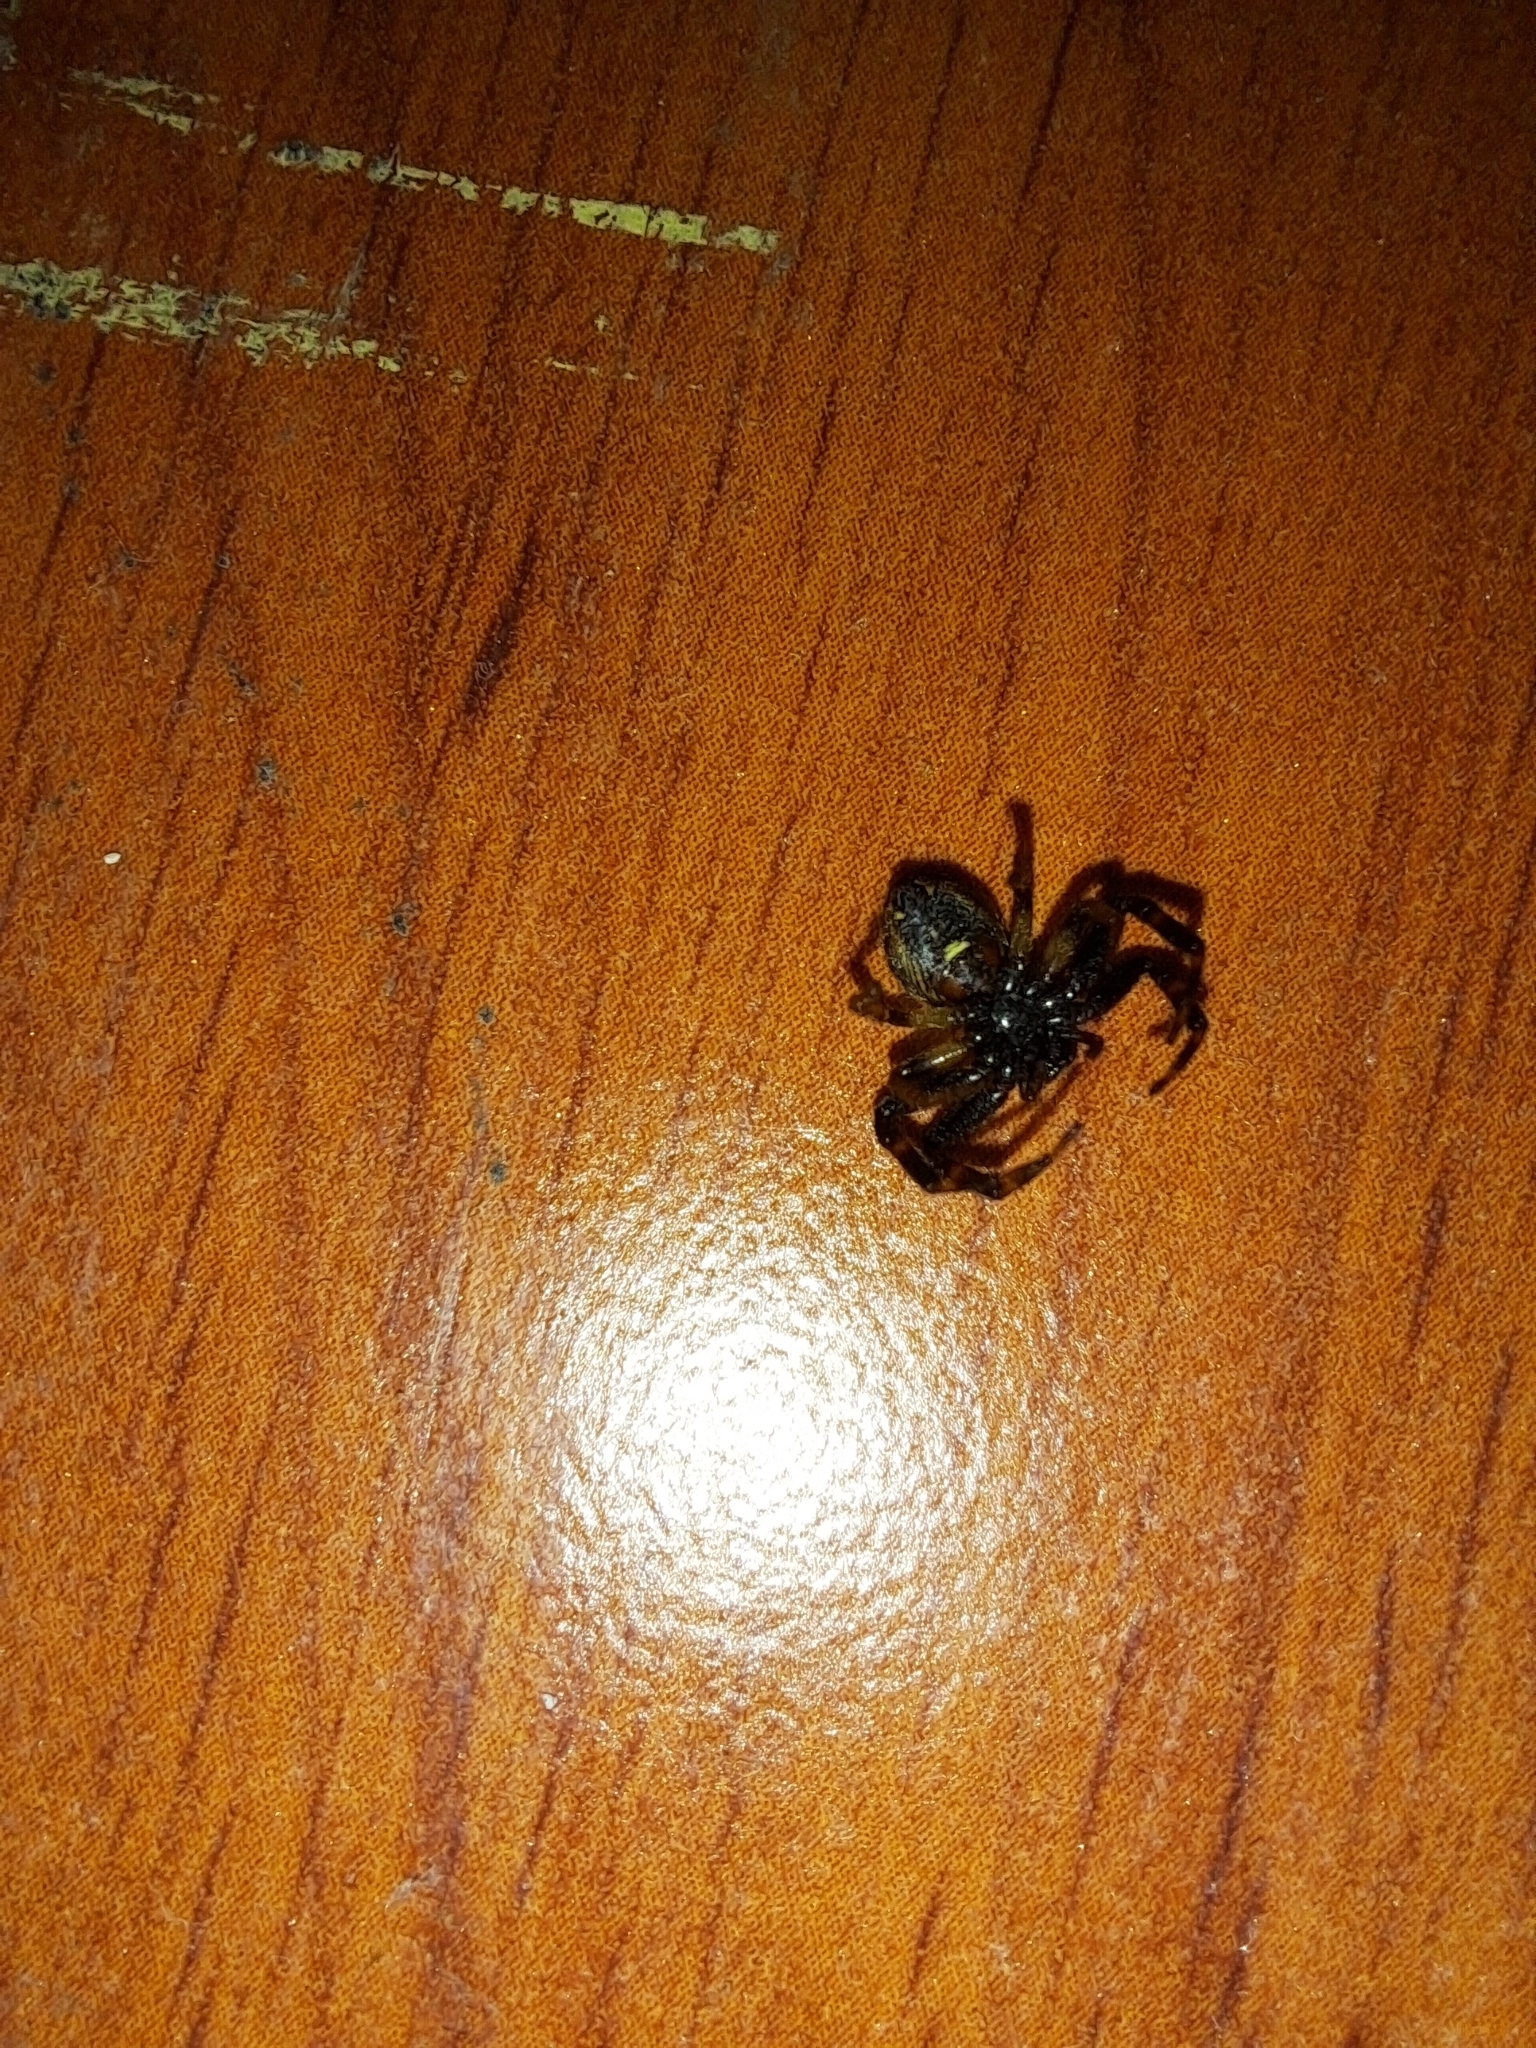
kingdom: Animalia
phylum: Arthropoda
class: Arachnida
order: Araneae
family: Thomisidae
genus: Synema
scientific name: Synema globosum
